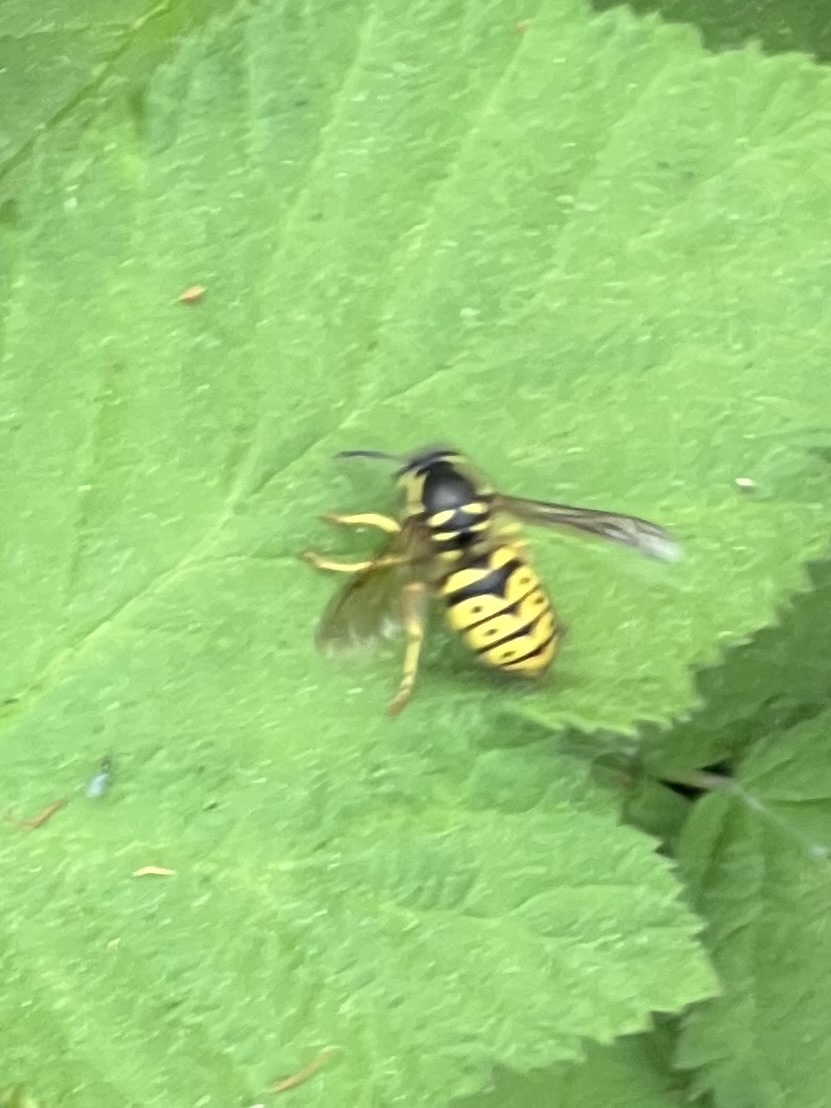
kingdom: Animalia
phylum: Arthropoda
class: Insecta
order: Hymenoptera
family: Vespidae
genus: Dolichovespula
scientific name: Dolichovespula arenaria
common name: Aerial yellowjacket
